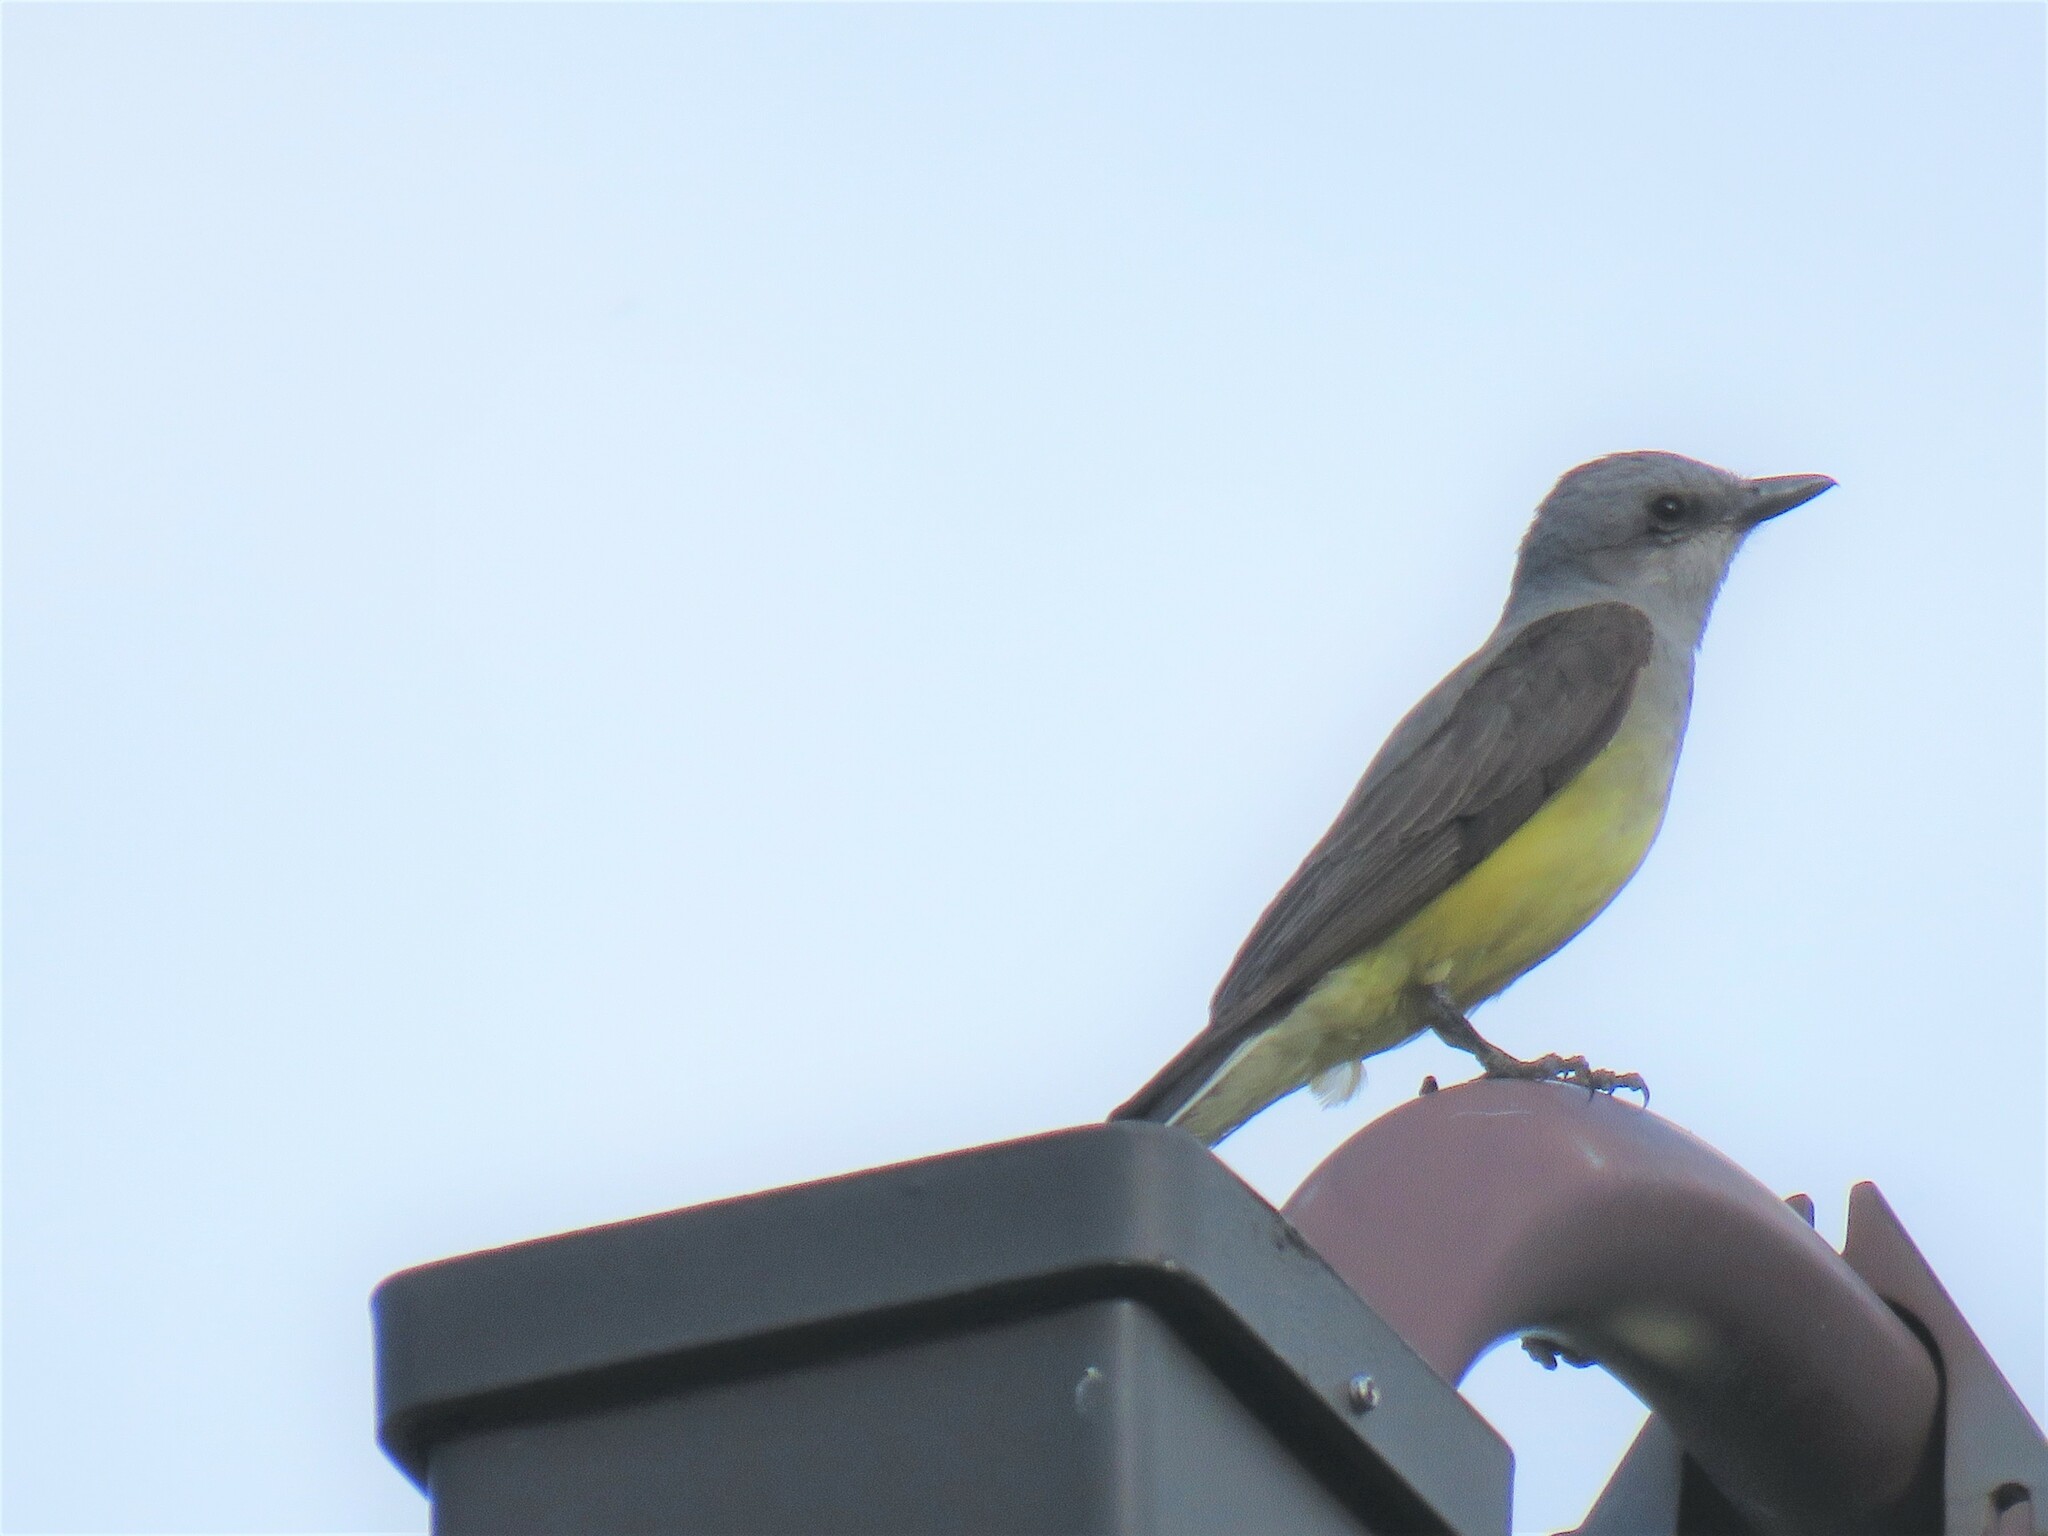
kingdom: Animalia
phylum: Chordata
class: Aves
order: Passeriformes
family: Tyrannidae
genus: Tyrannus
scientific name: Tyrannus verticalis
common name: Western kingbird
